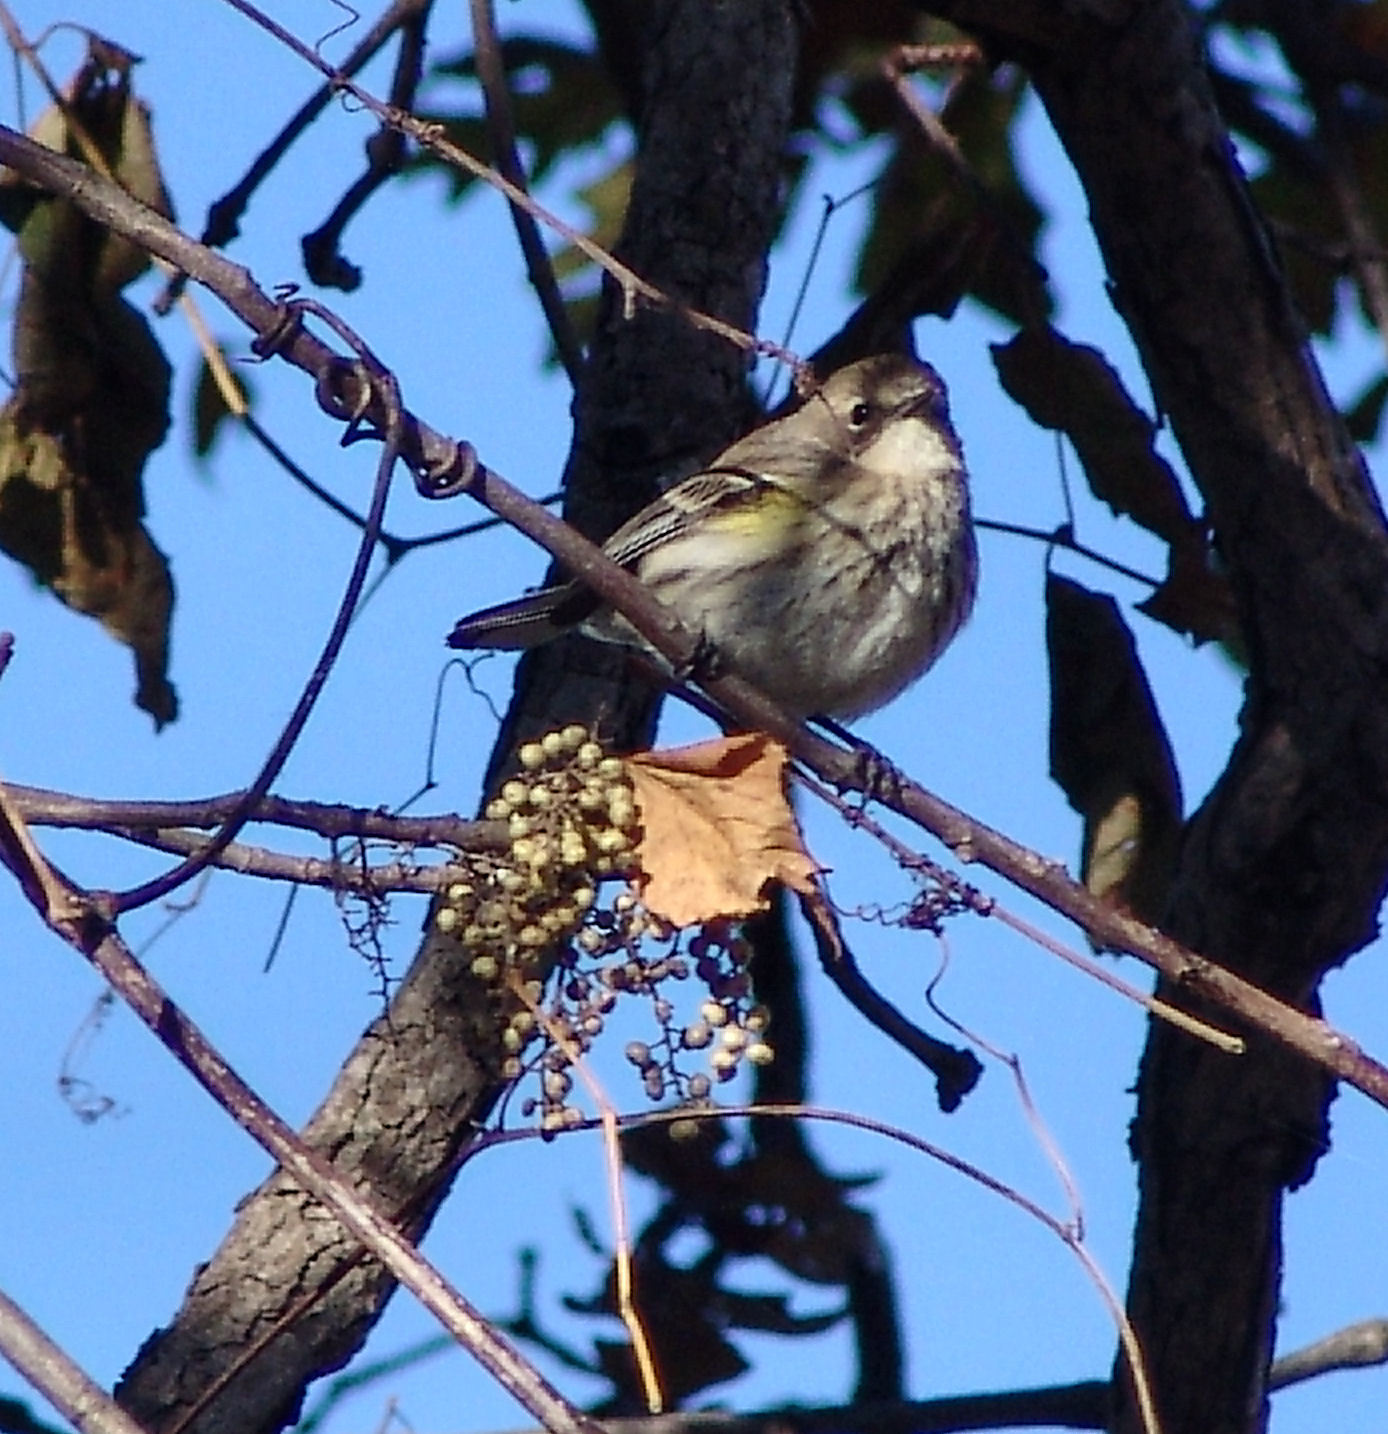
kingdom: Animalia
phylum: Chordata
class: Aves
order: Passeriformes
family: Parulidae
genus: Setophaga
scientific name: Setophaga coronata
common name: Myrtle warbler
